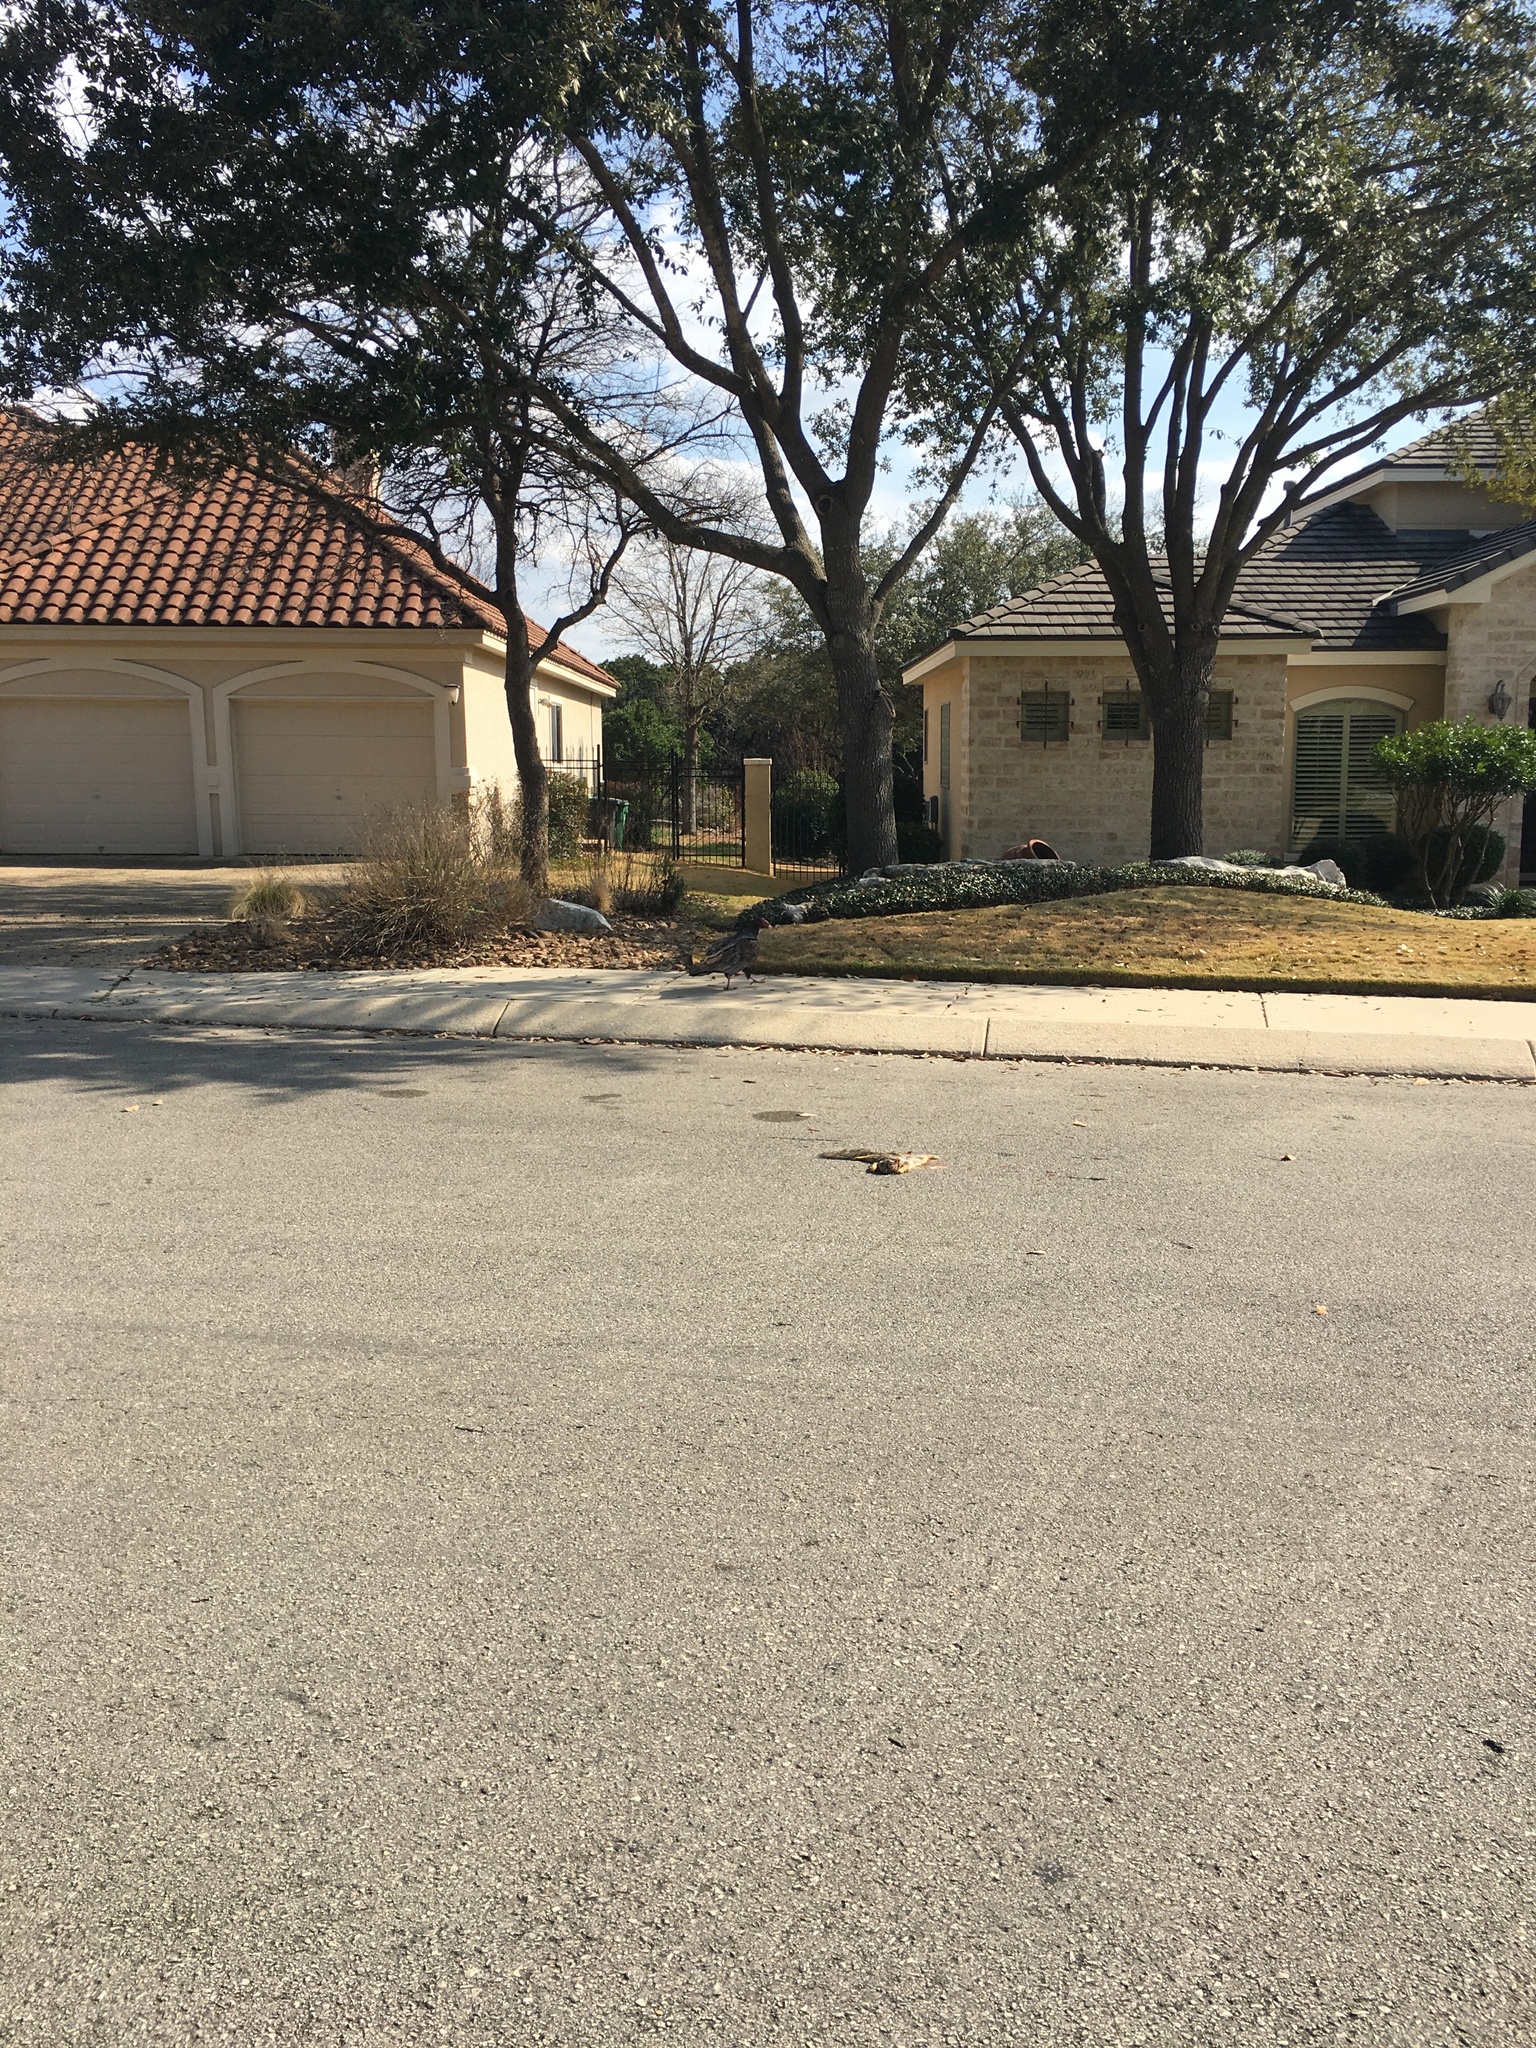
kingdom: Animalia
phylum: Chordata
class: Aves
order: Accipitriformes
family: Cathartidae
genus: Cathartes
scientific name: Cathartes aura
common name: Turkey vulture
